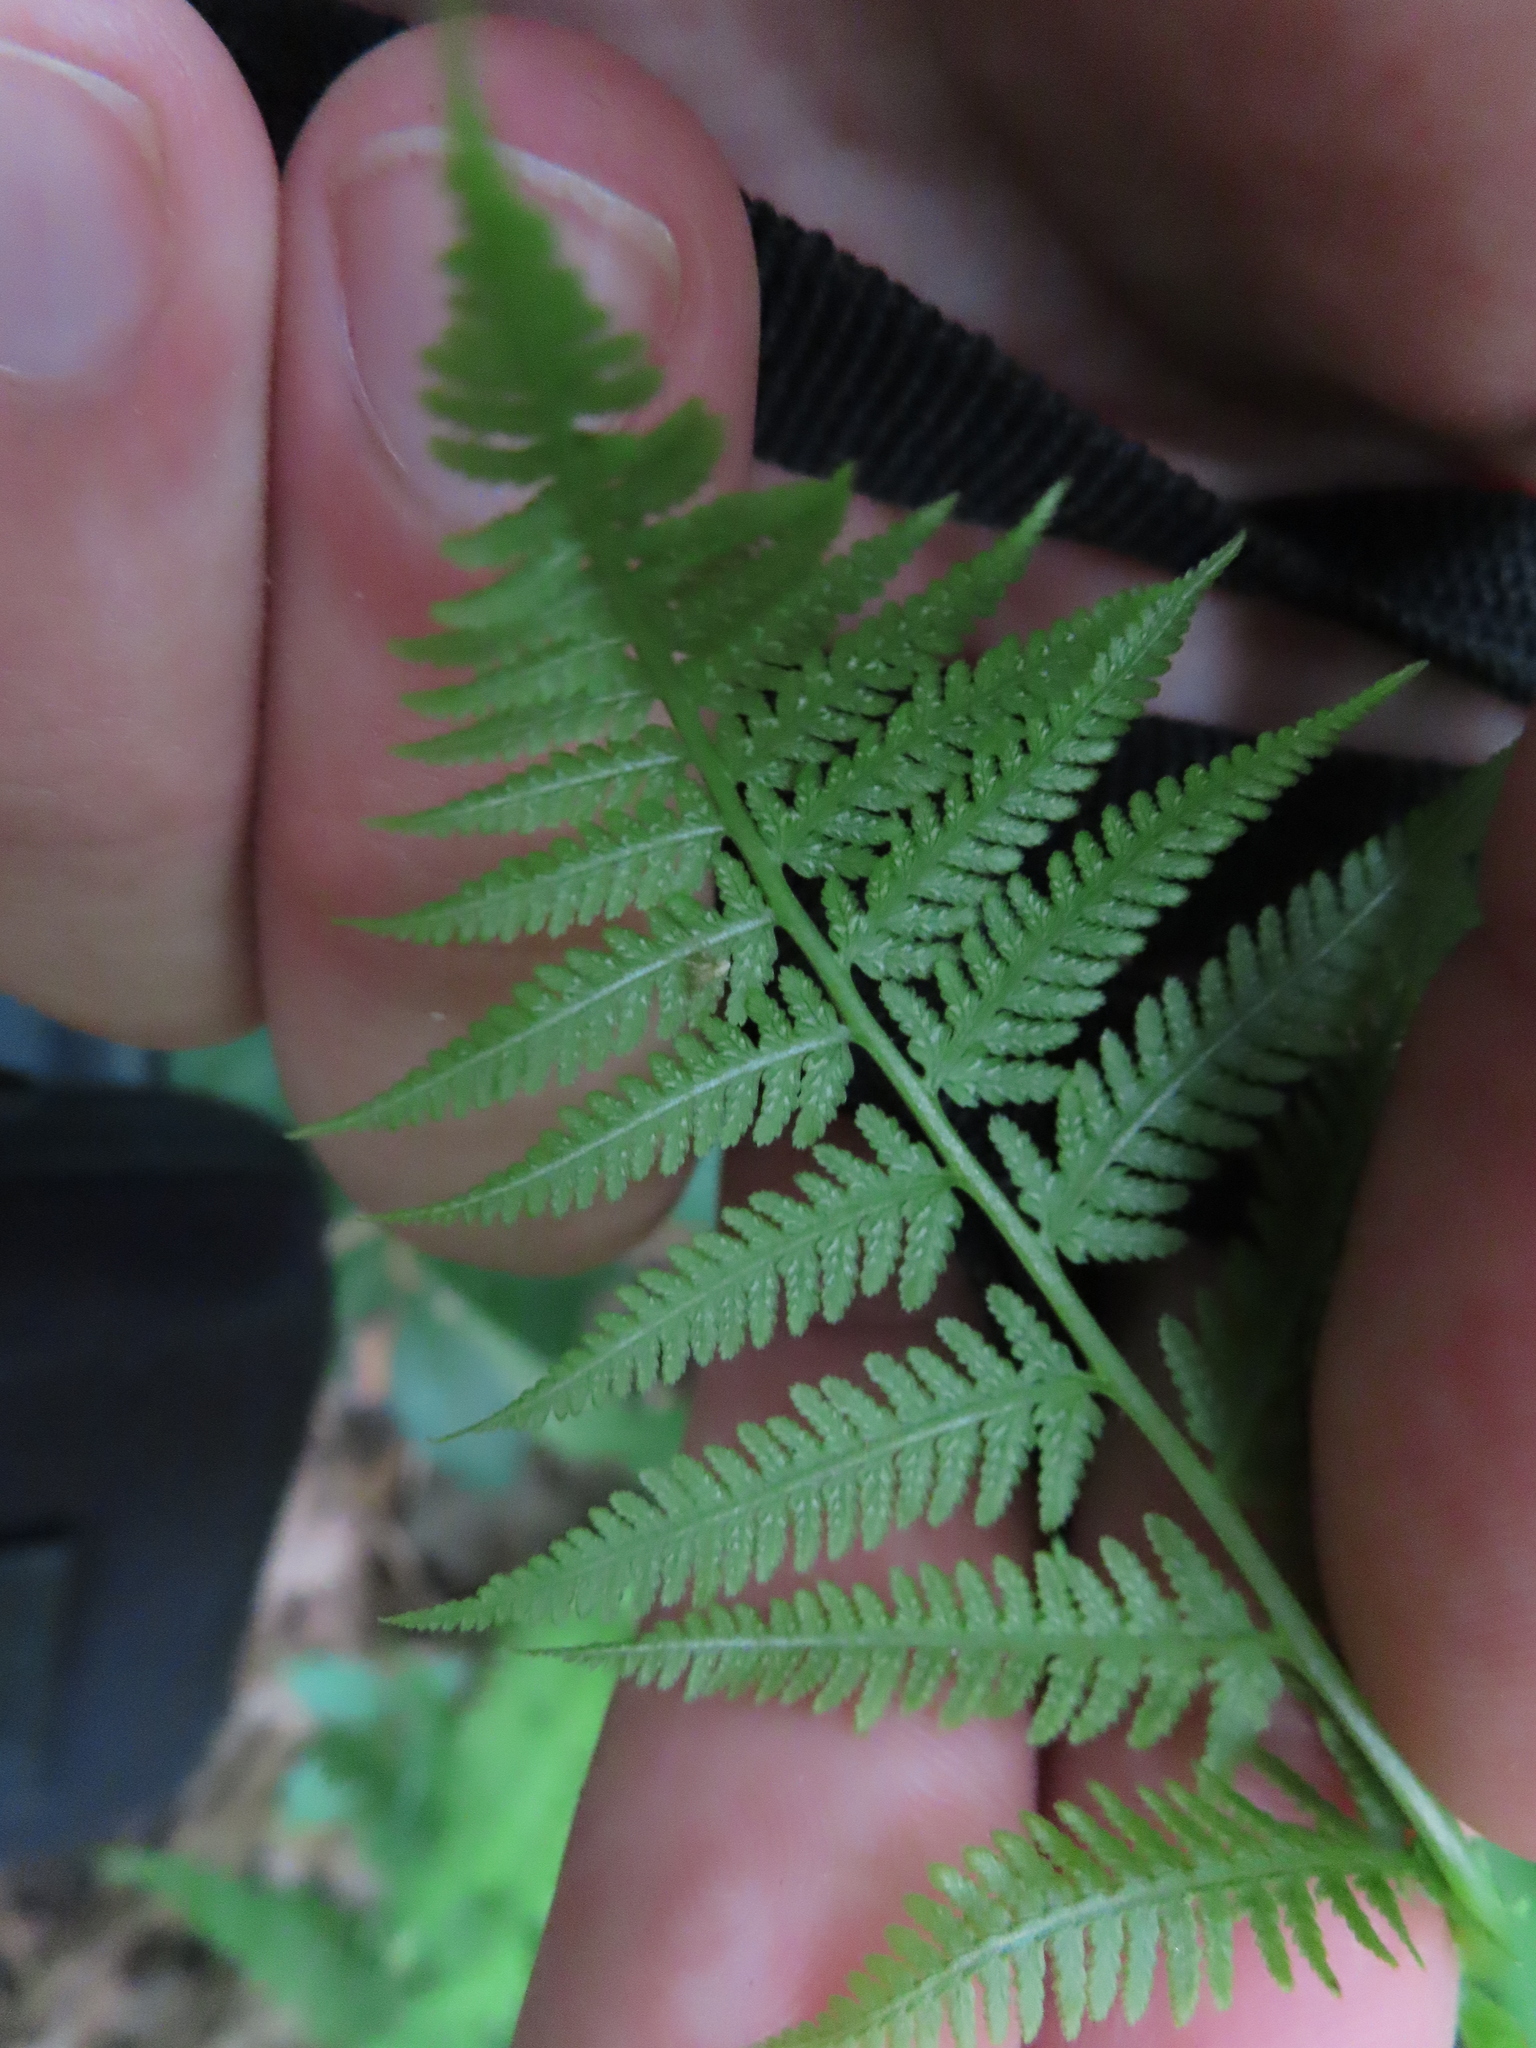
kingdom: Plantae
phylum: Tracheophyta
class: Polypodiopsida
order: Polypodiales
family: Athyriaceae
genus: Athyrium
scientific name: Athyrium angustum
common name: Northern lady fern
